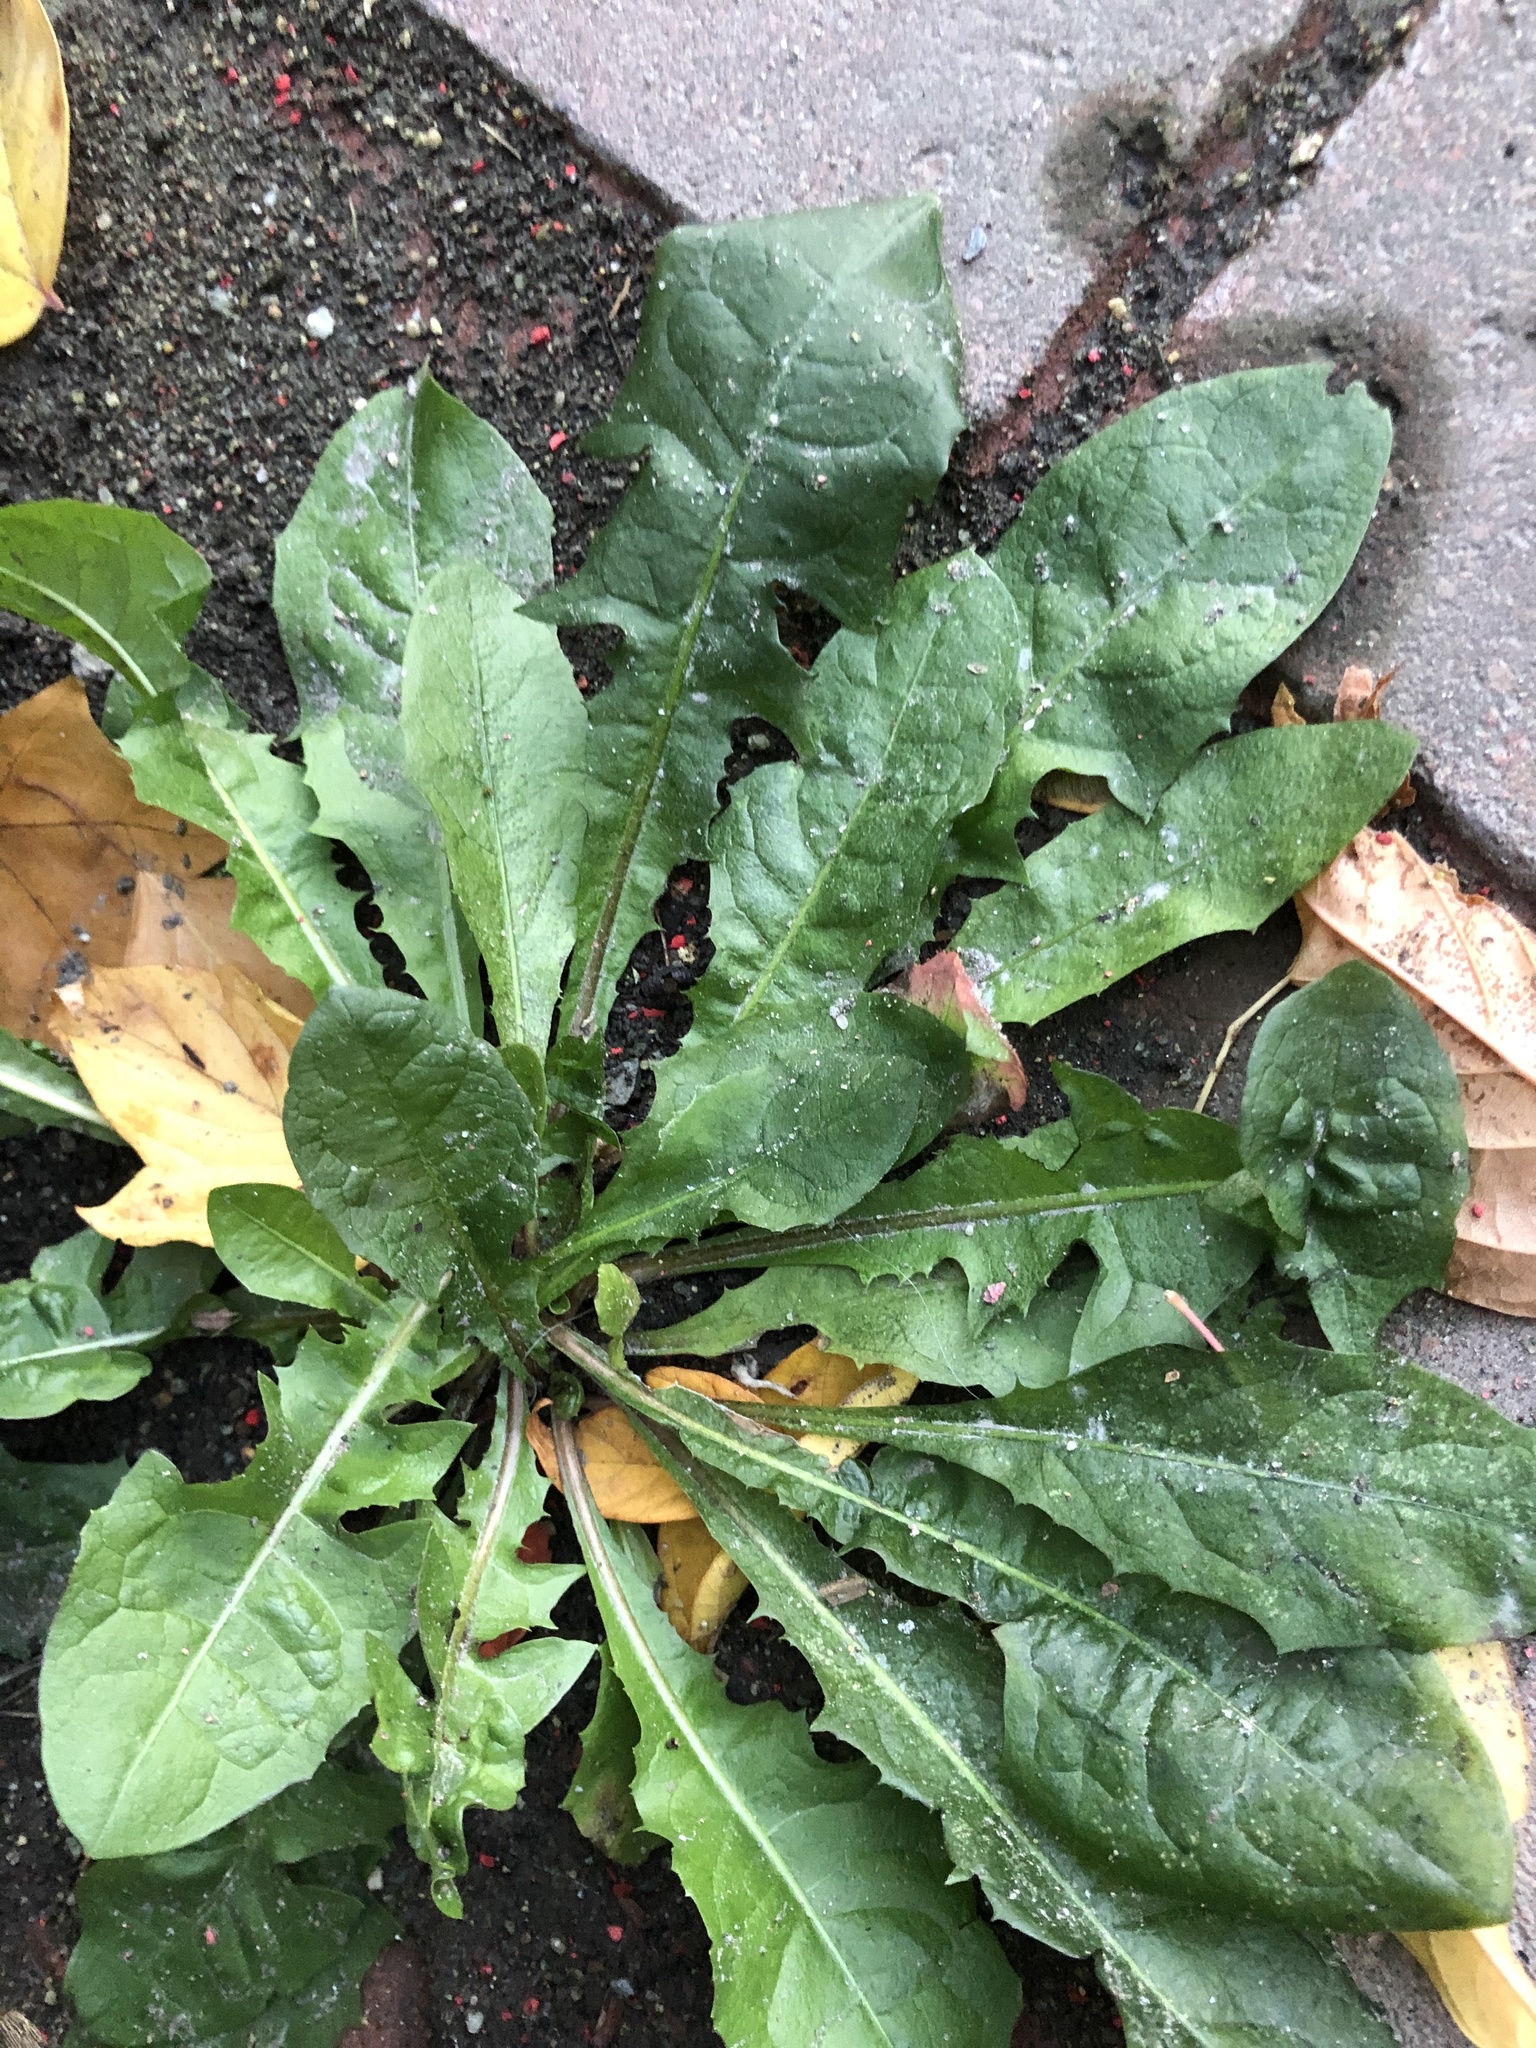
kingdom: Plantae
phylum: Tracheophyta
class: Magnoliopsida
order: Asterales
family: Asteraceae
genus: Taraxacum
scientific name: Taraxacum officinale
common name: Common dandelion
